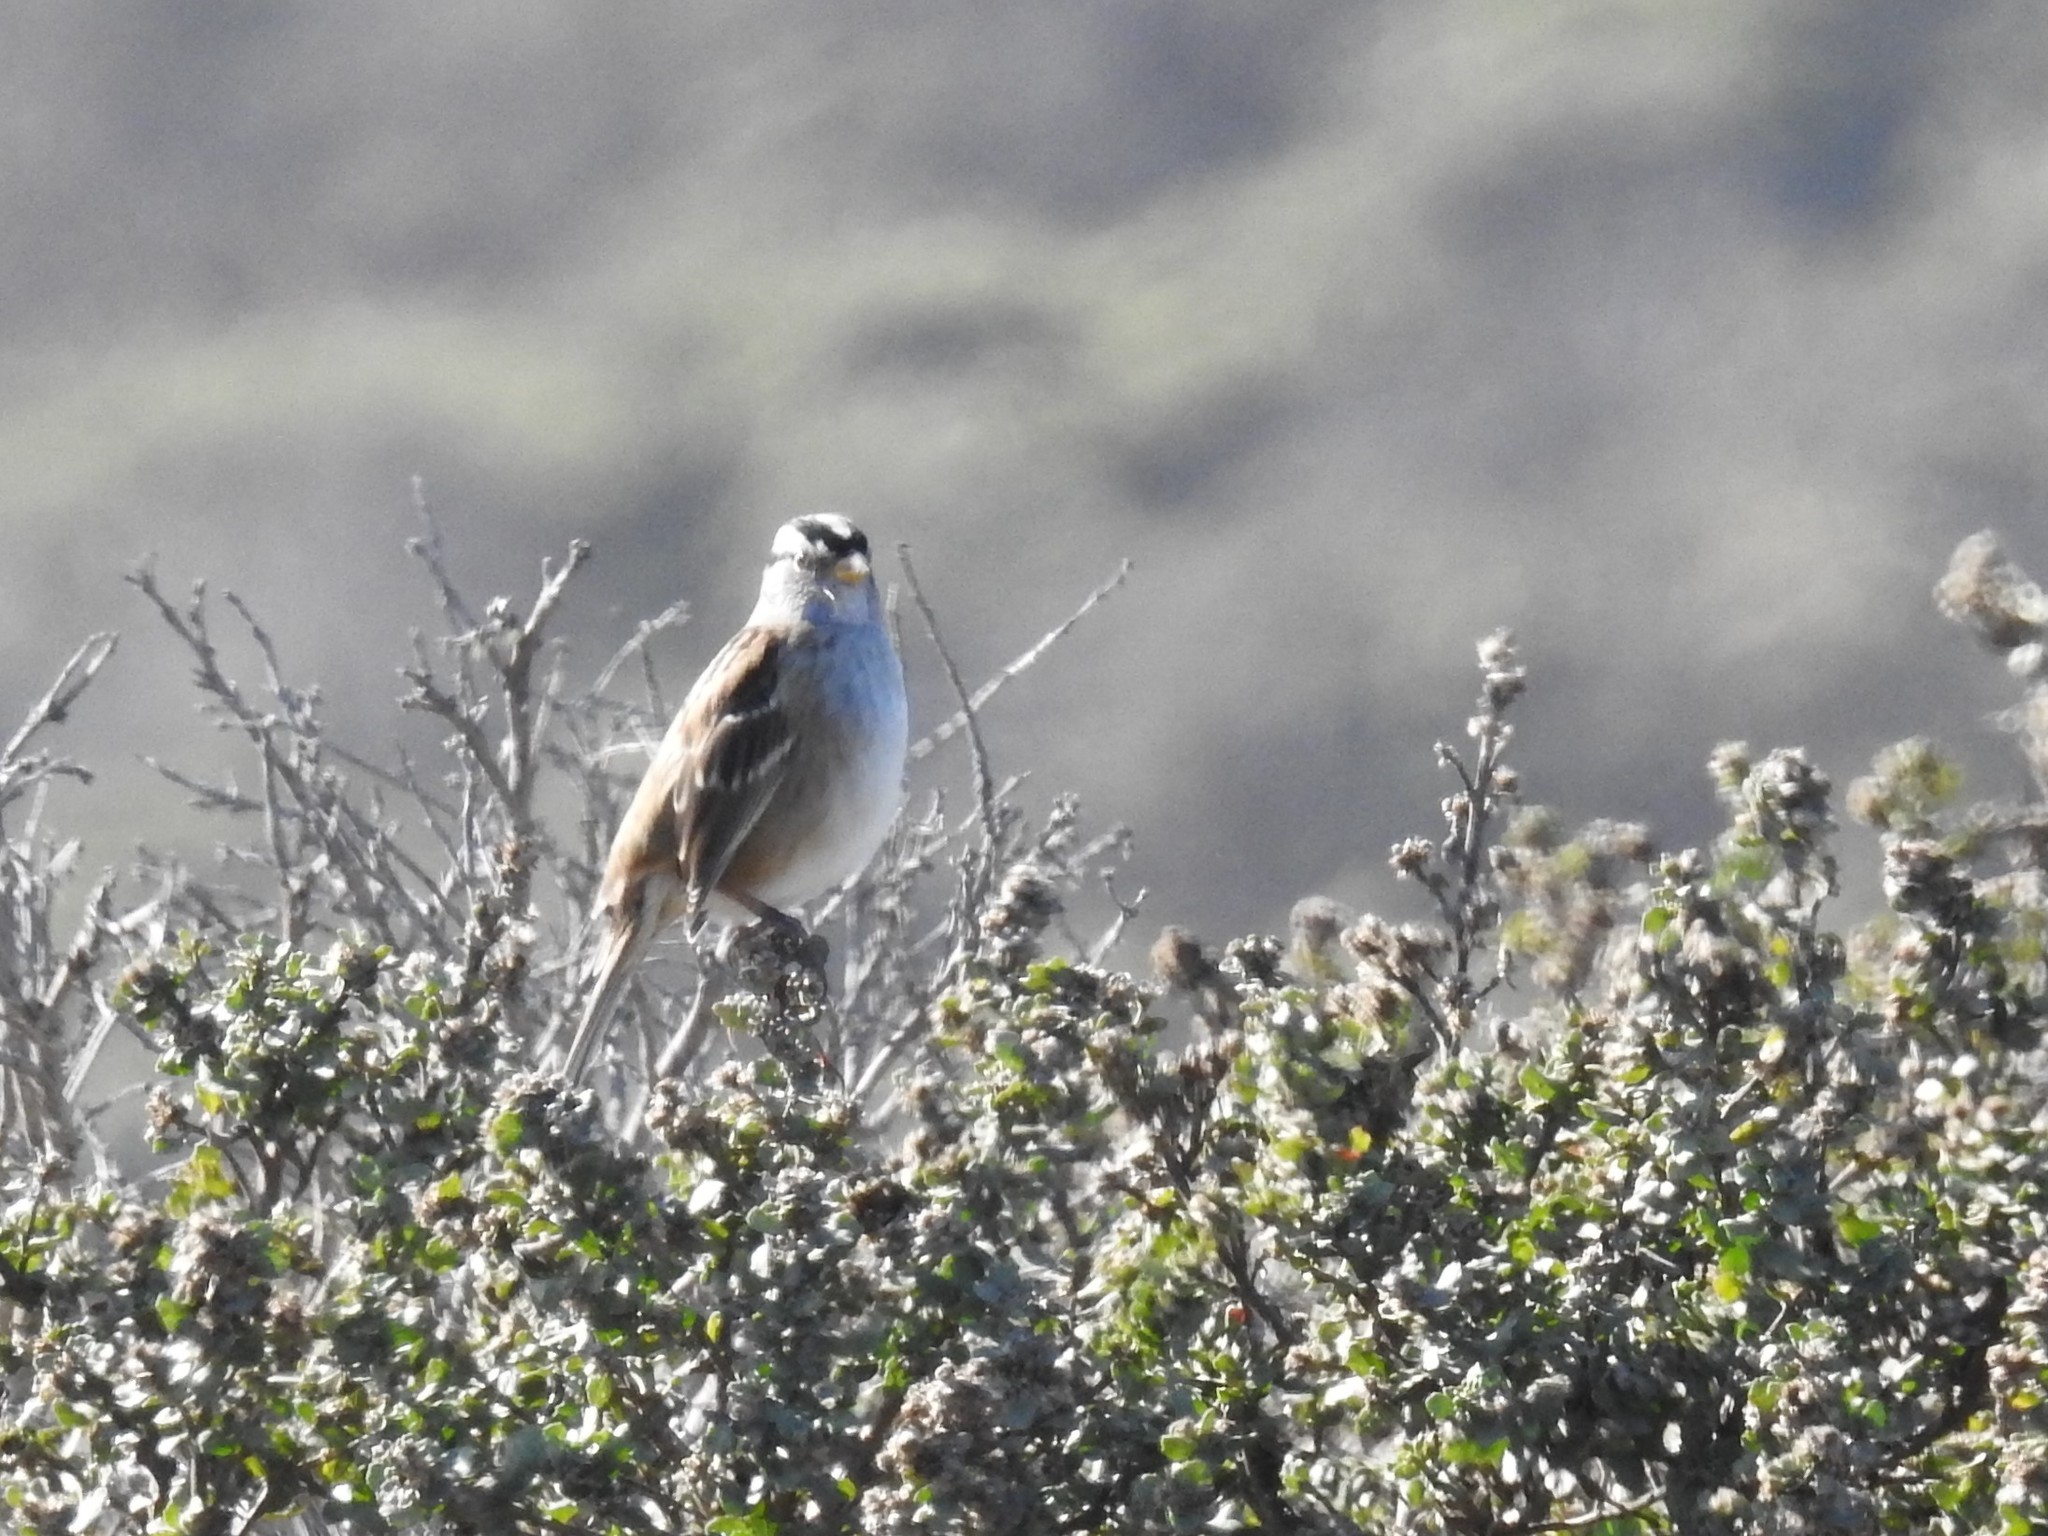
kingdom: Animalia
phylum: Chordata
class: Aves
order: Passeriformes
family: Passerellidae
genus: Zonotrichia
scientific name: Zonotrichia leucophrys
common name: White-crowned sparrow
